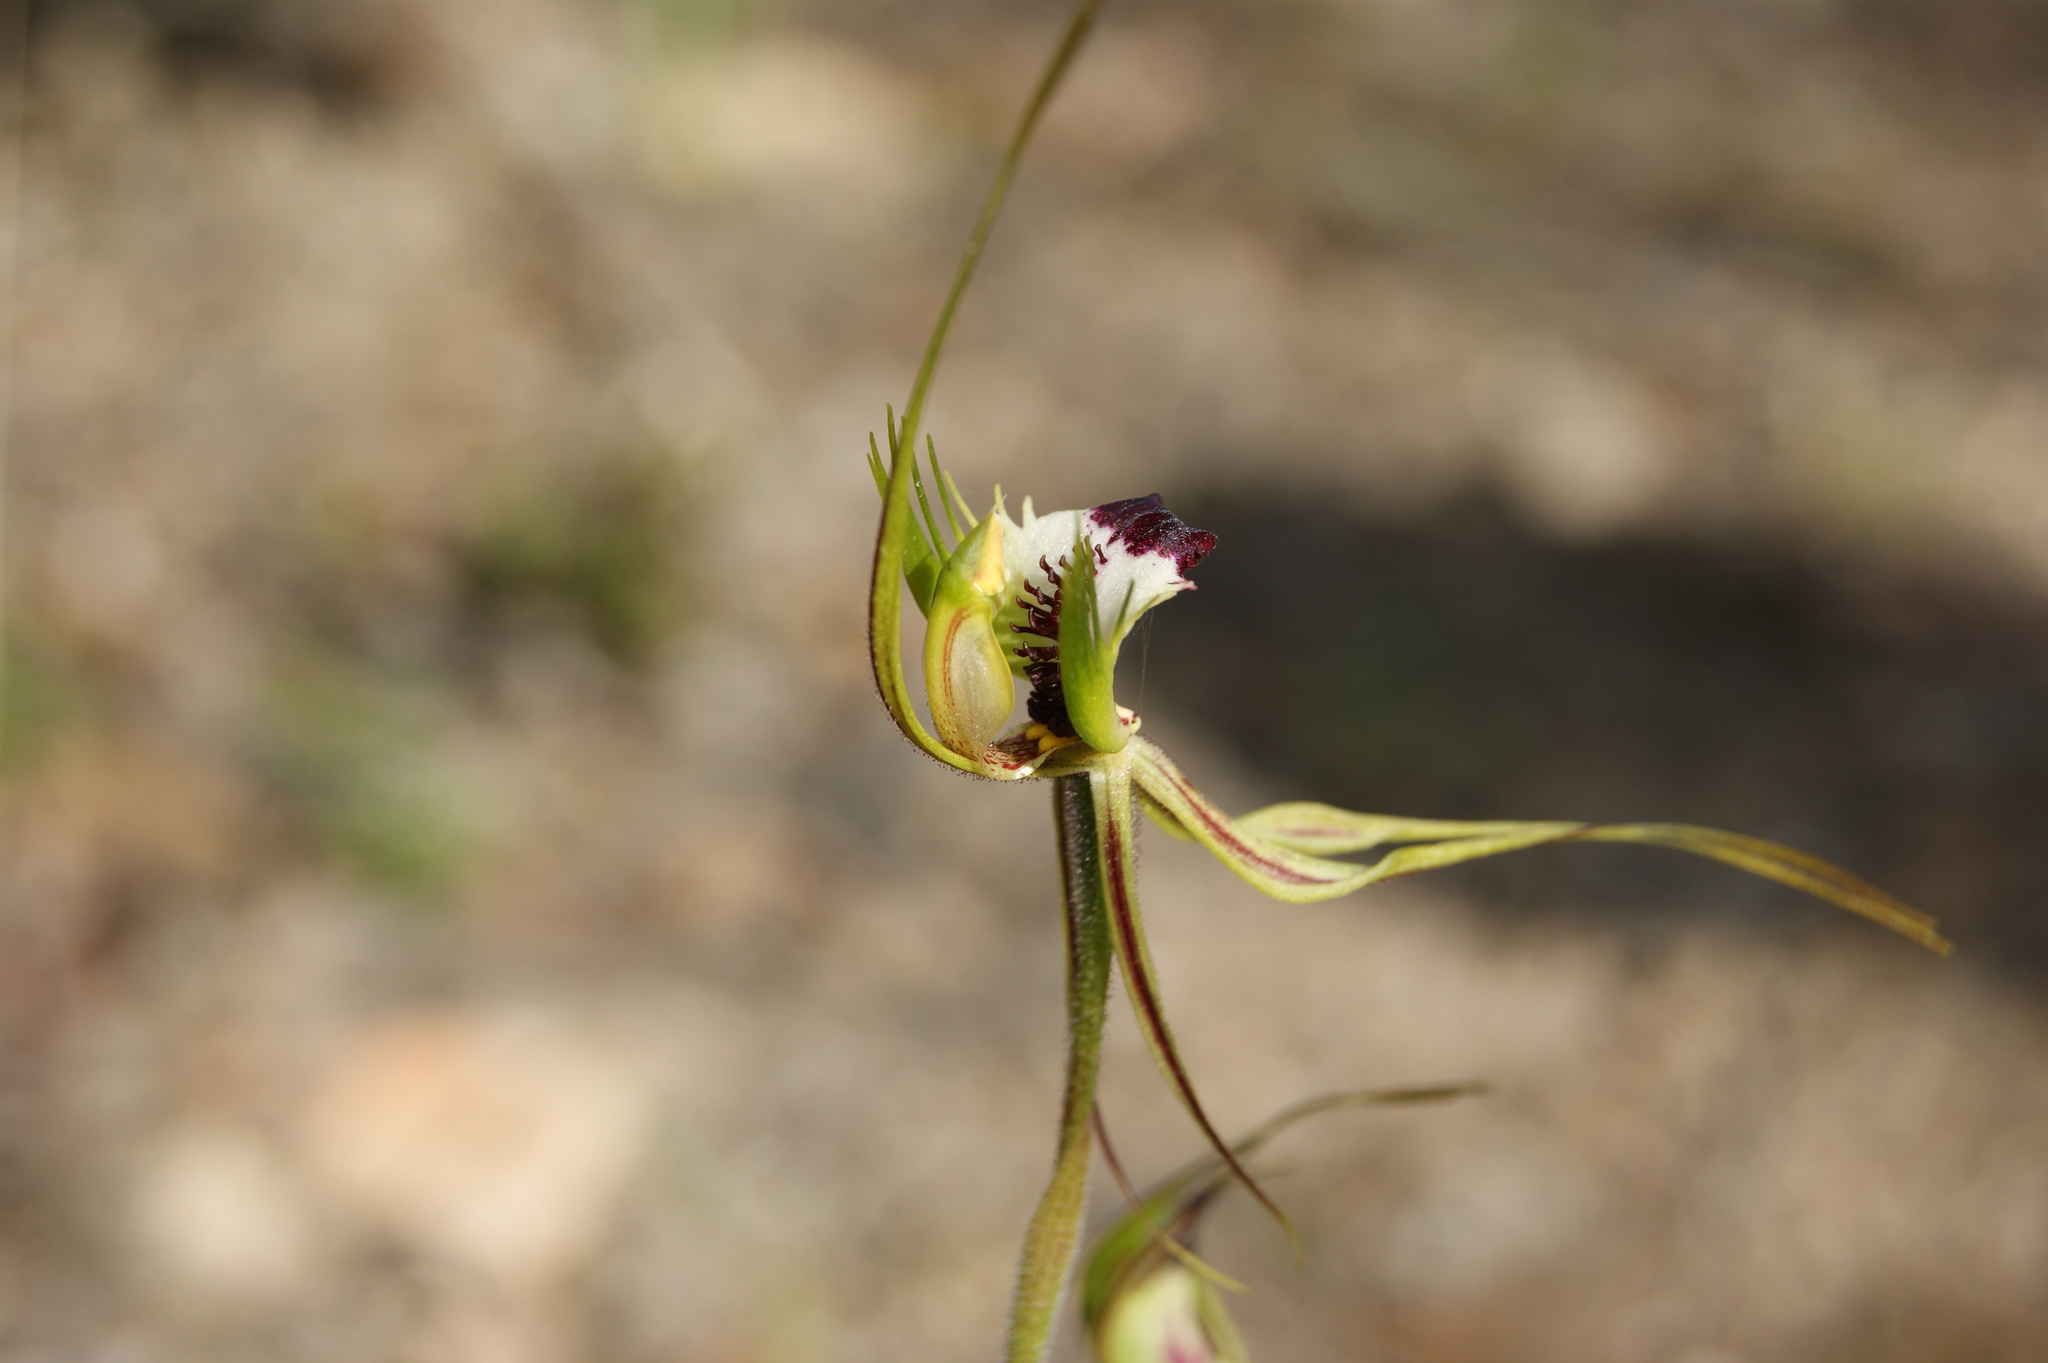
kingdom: Plantae
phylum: Tracheophyta
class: Liliopsida
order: Asparagales
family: Orchidaceae
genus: Caladenia
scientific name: Caladenia tentaculata
